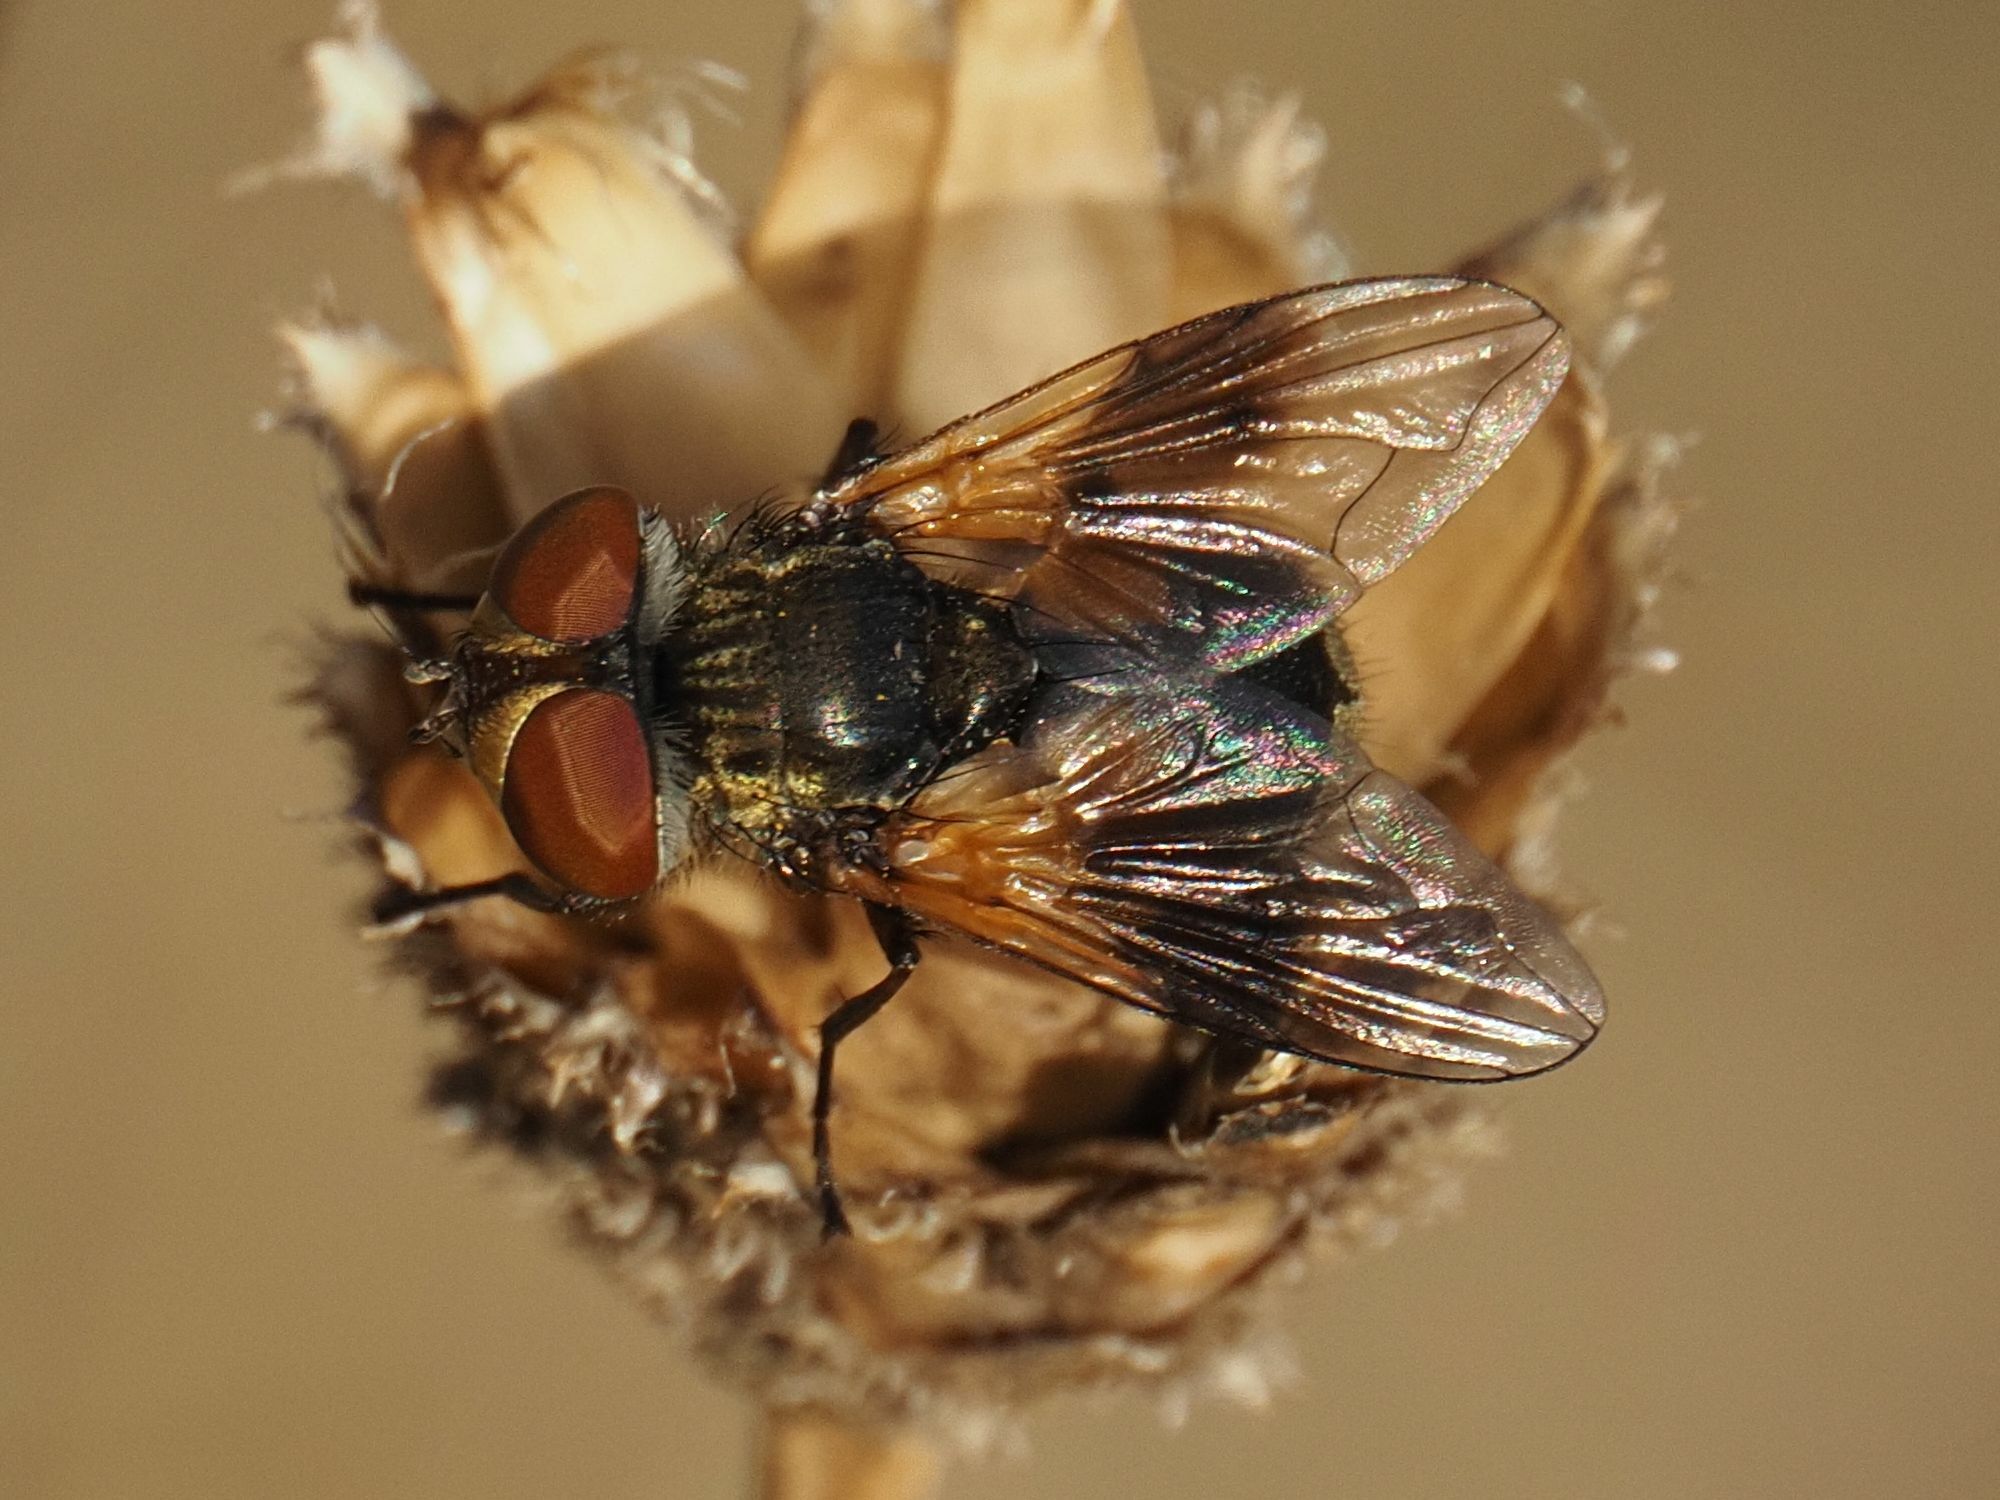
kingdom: Animalia
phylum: Arthropoda
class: Insecta
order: Diptera
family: Tachinidae
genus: Ectophasia
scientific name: Ectophasia crassipennis
